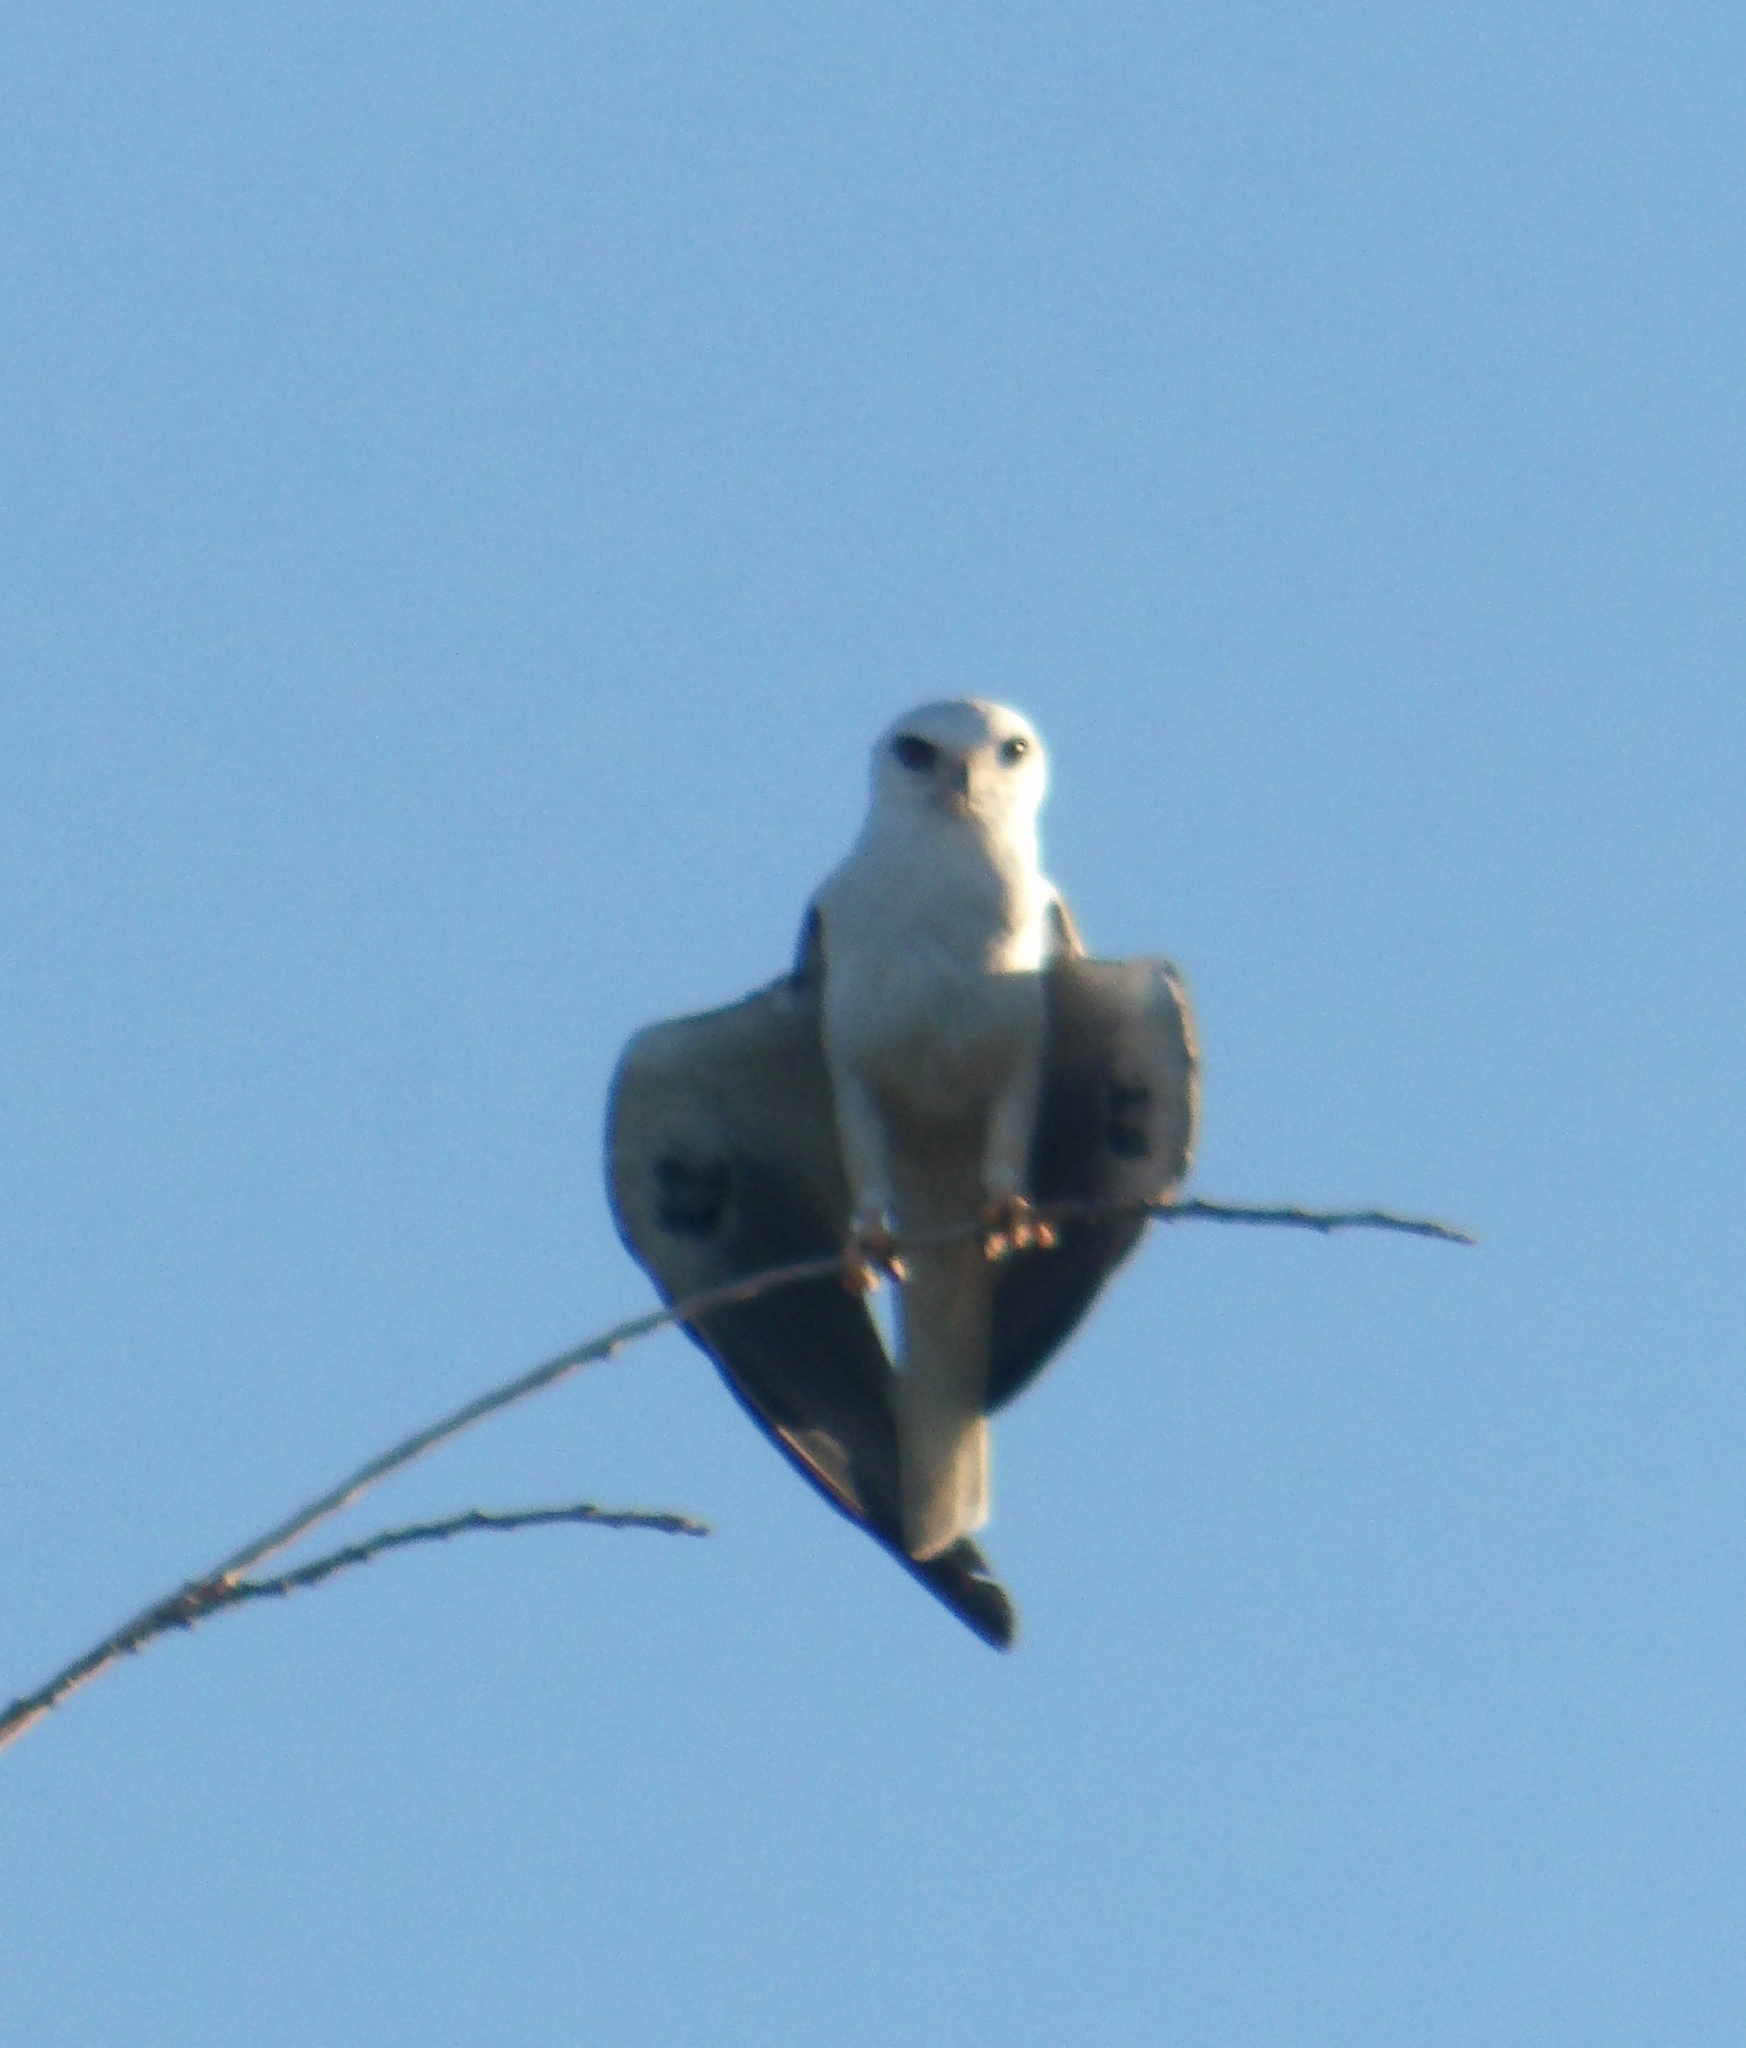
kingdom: Animalia
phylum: Chordata
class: Aves
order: Accipitriformes
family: Accipitridae
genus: Elanus
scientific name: Elanus leucurus
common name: White-tailed kite
